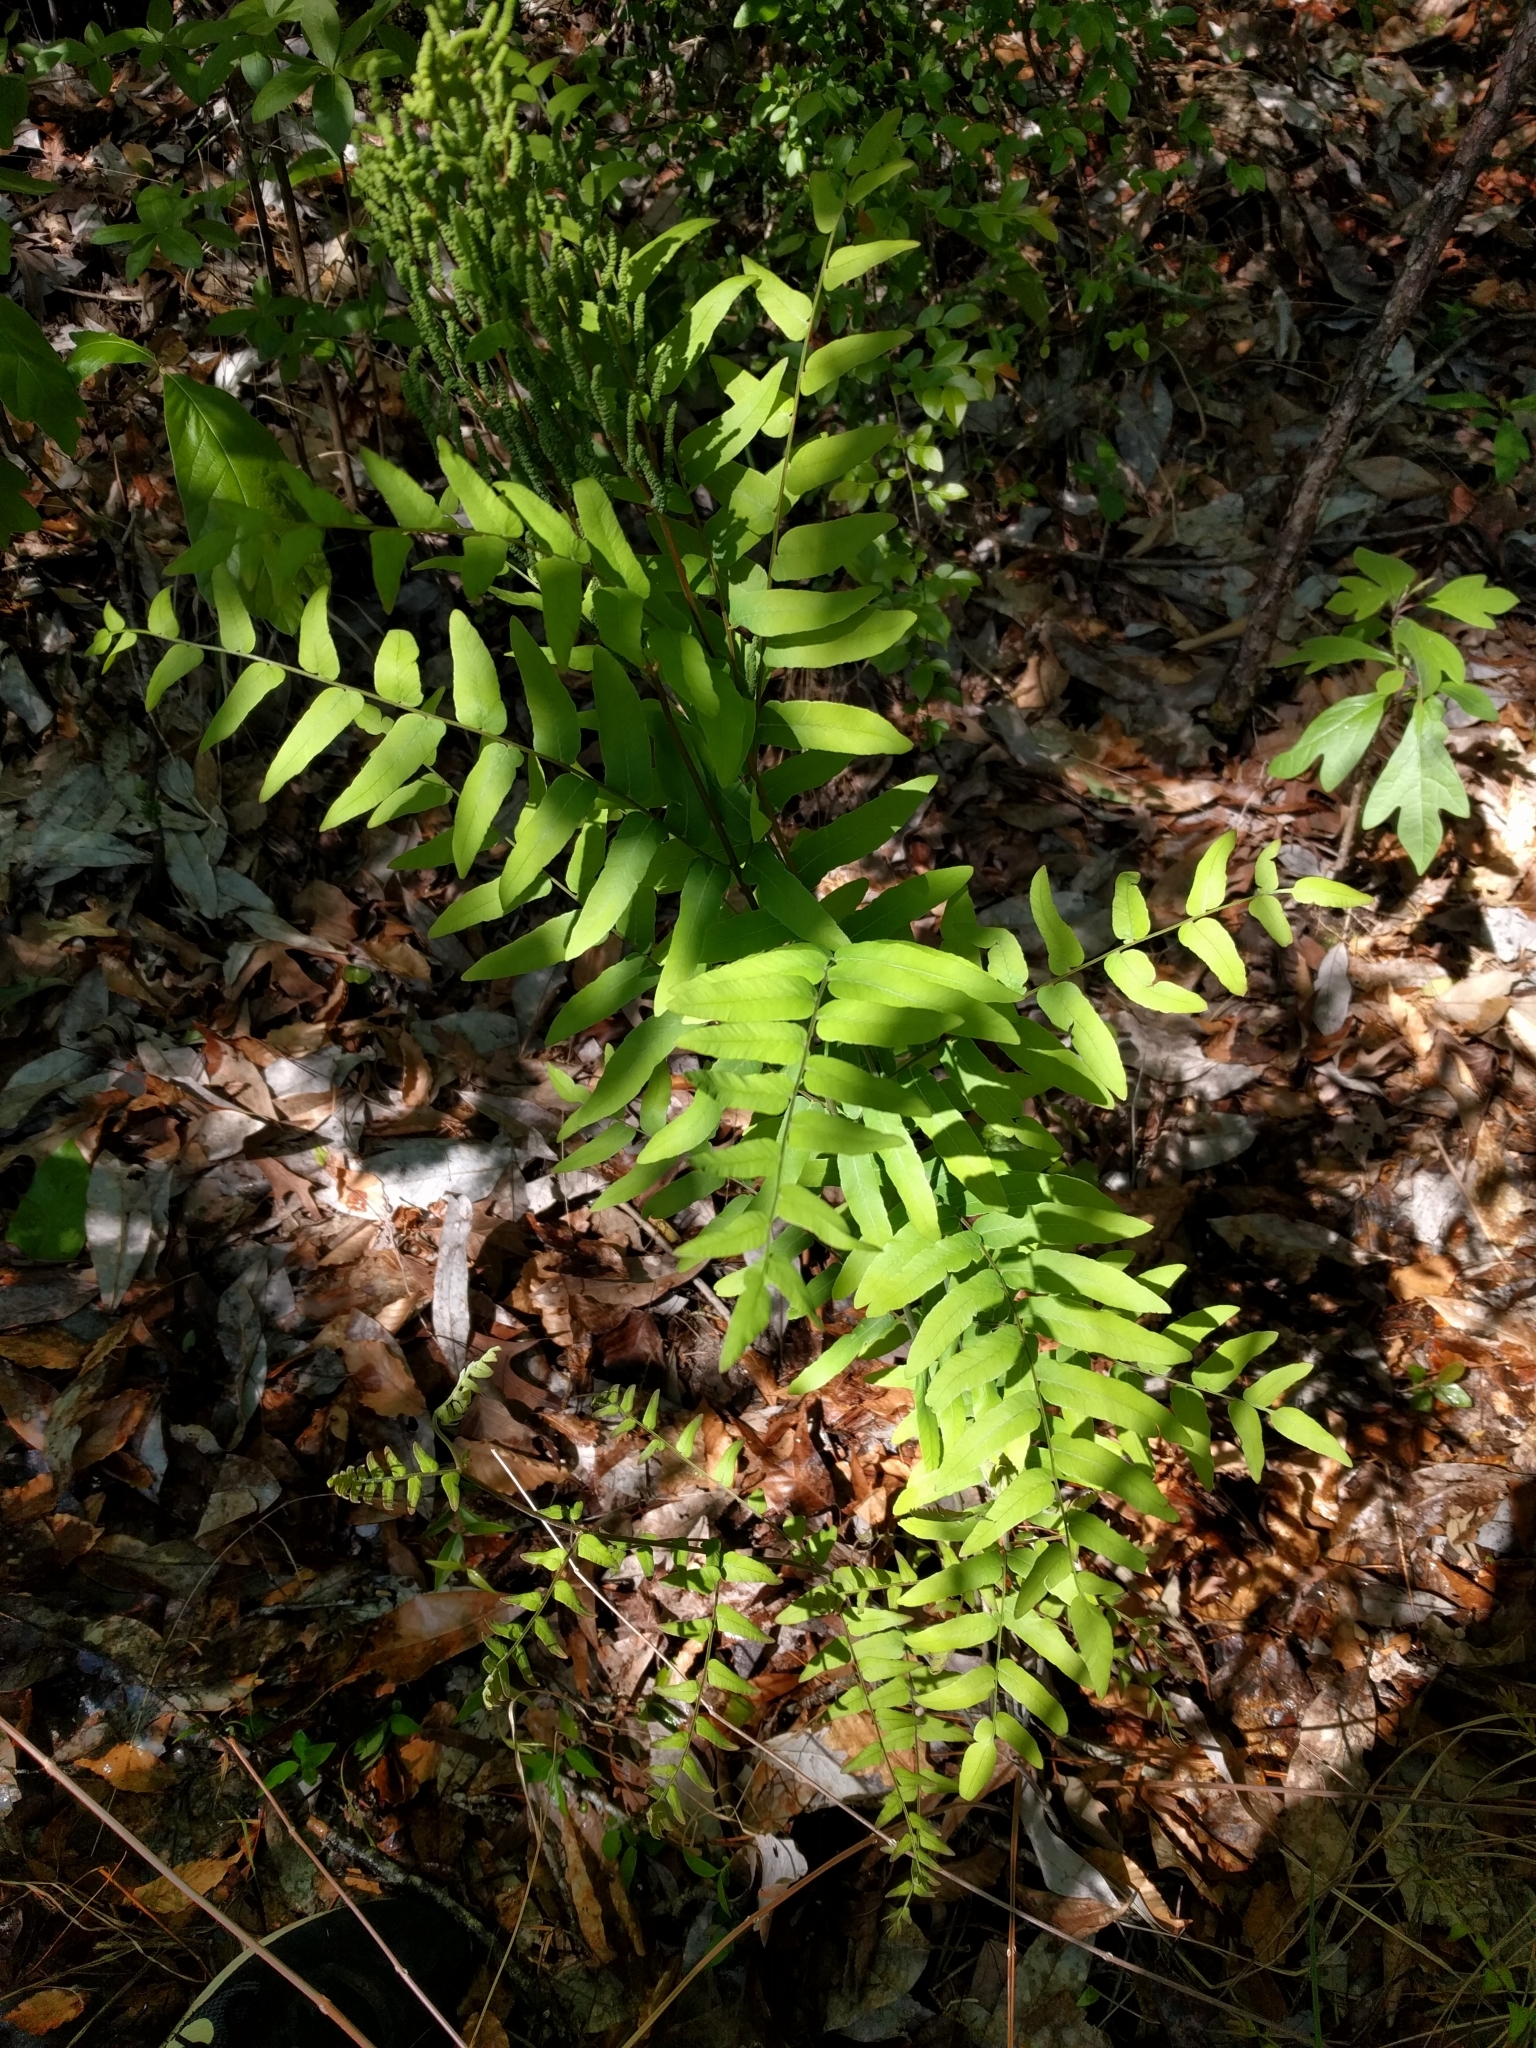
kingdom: Plantae
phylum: Tracheophyta
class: Polypodiopsida
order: Osmundales
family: Osmundaceae
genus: Osmunda
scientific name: Osmunda spectabilis
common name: American royal fern
